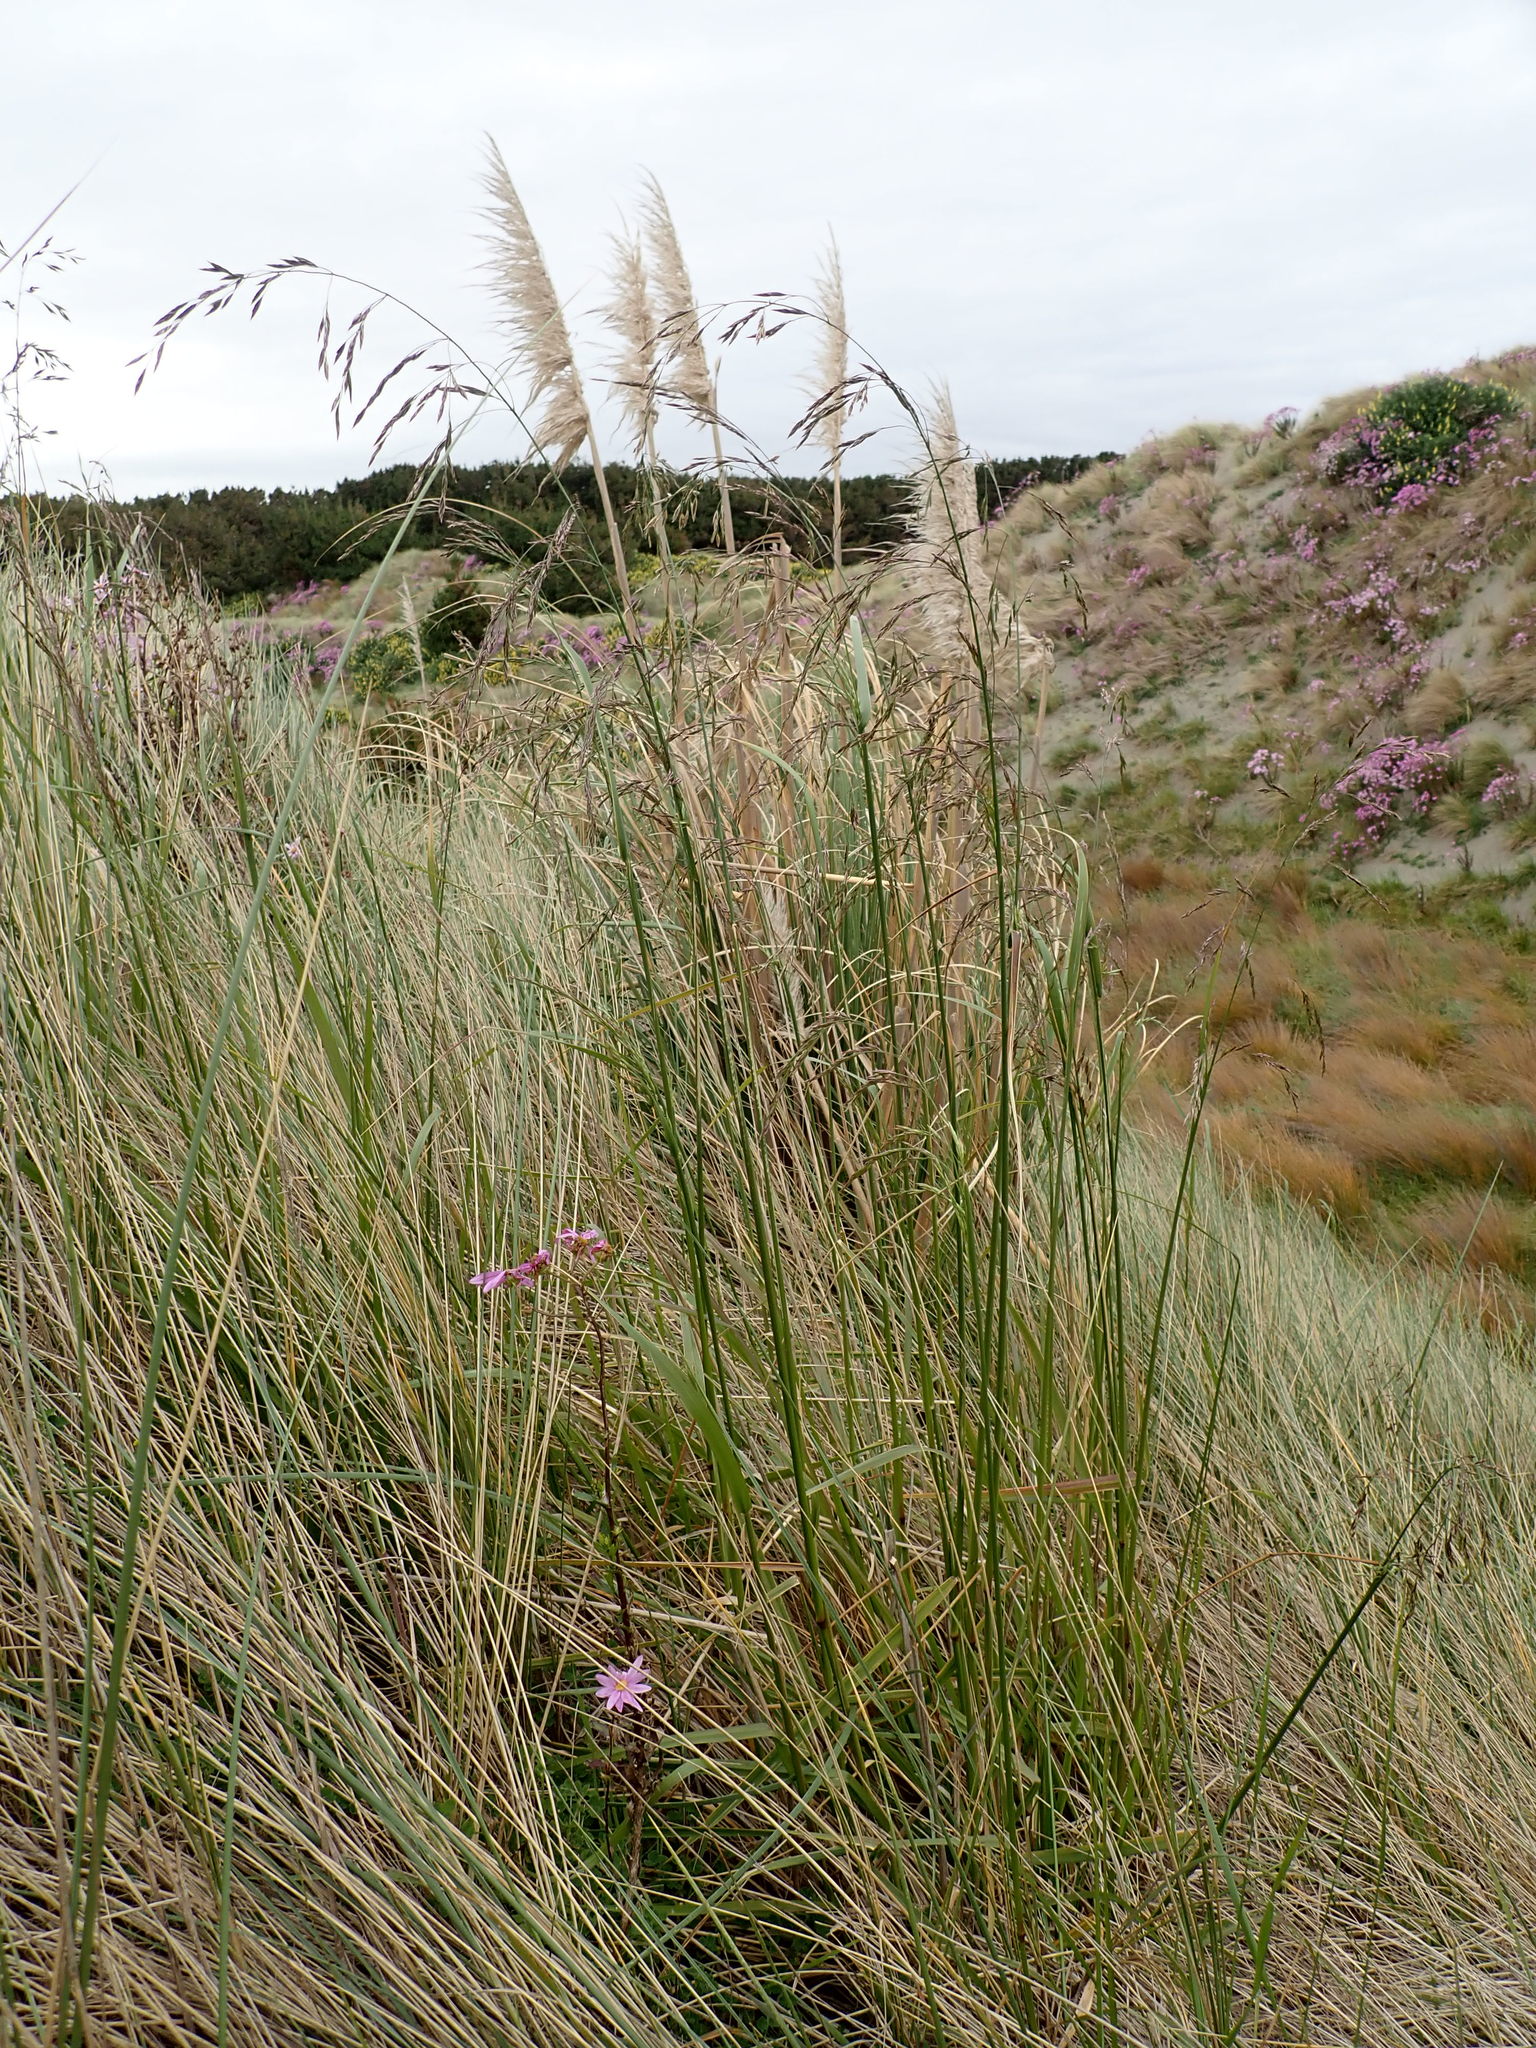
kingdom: Plantae
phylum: Tracheophyta
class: Liliopsida
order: Poales
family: Poaceae
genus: Lolium
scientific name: Lolium arundinaceum
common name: Reed fescue
